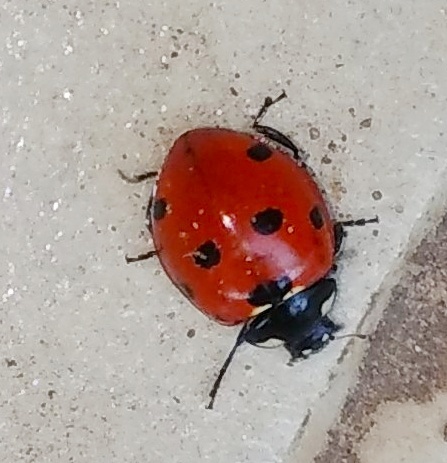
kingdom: Animalia
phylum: Arthropoda
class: Insecta
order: Coleoptera
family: Coccinellidae
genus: Coccinella
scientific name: Coccinella septempunctata
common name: Sevenspotted lady beetle
